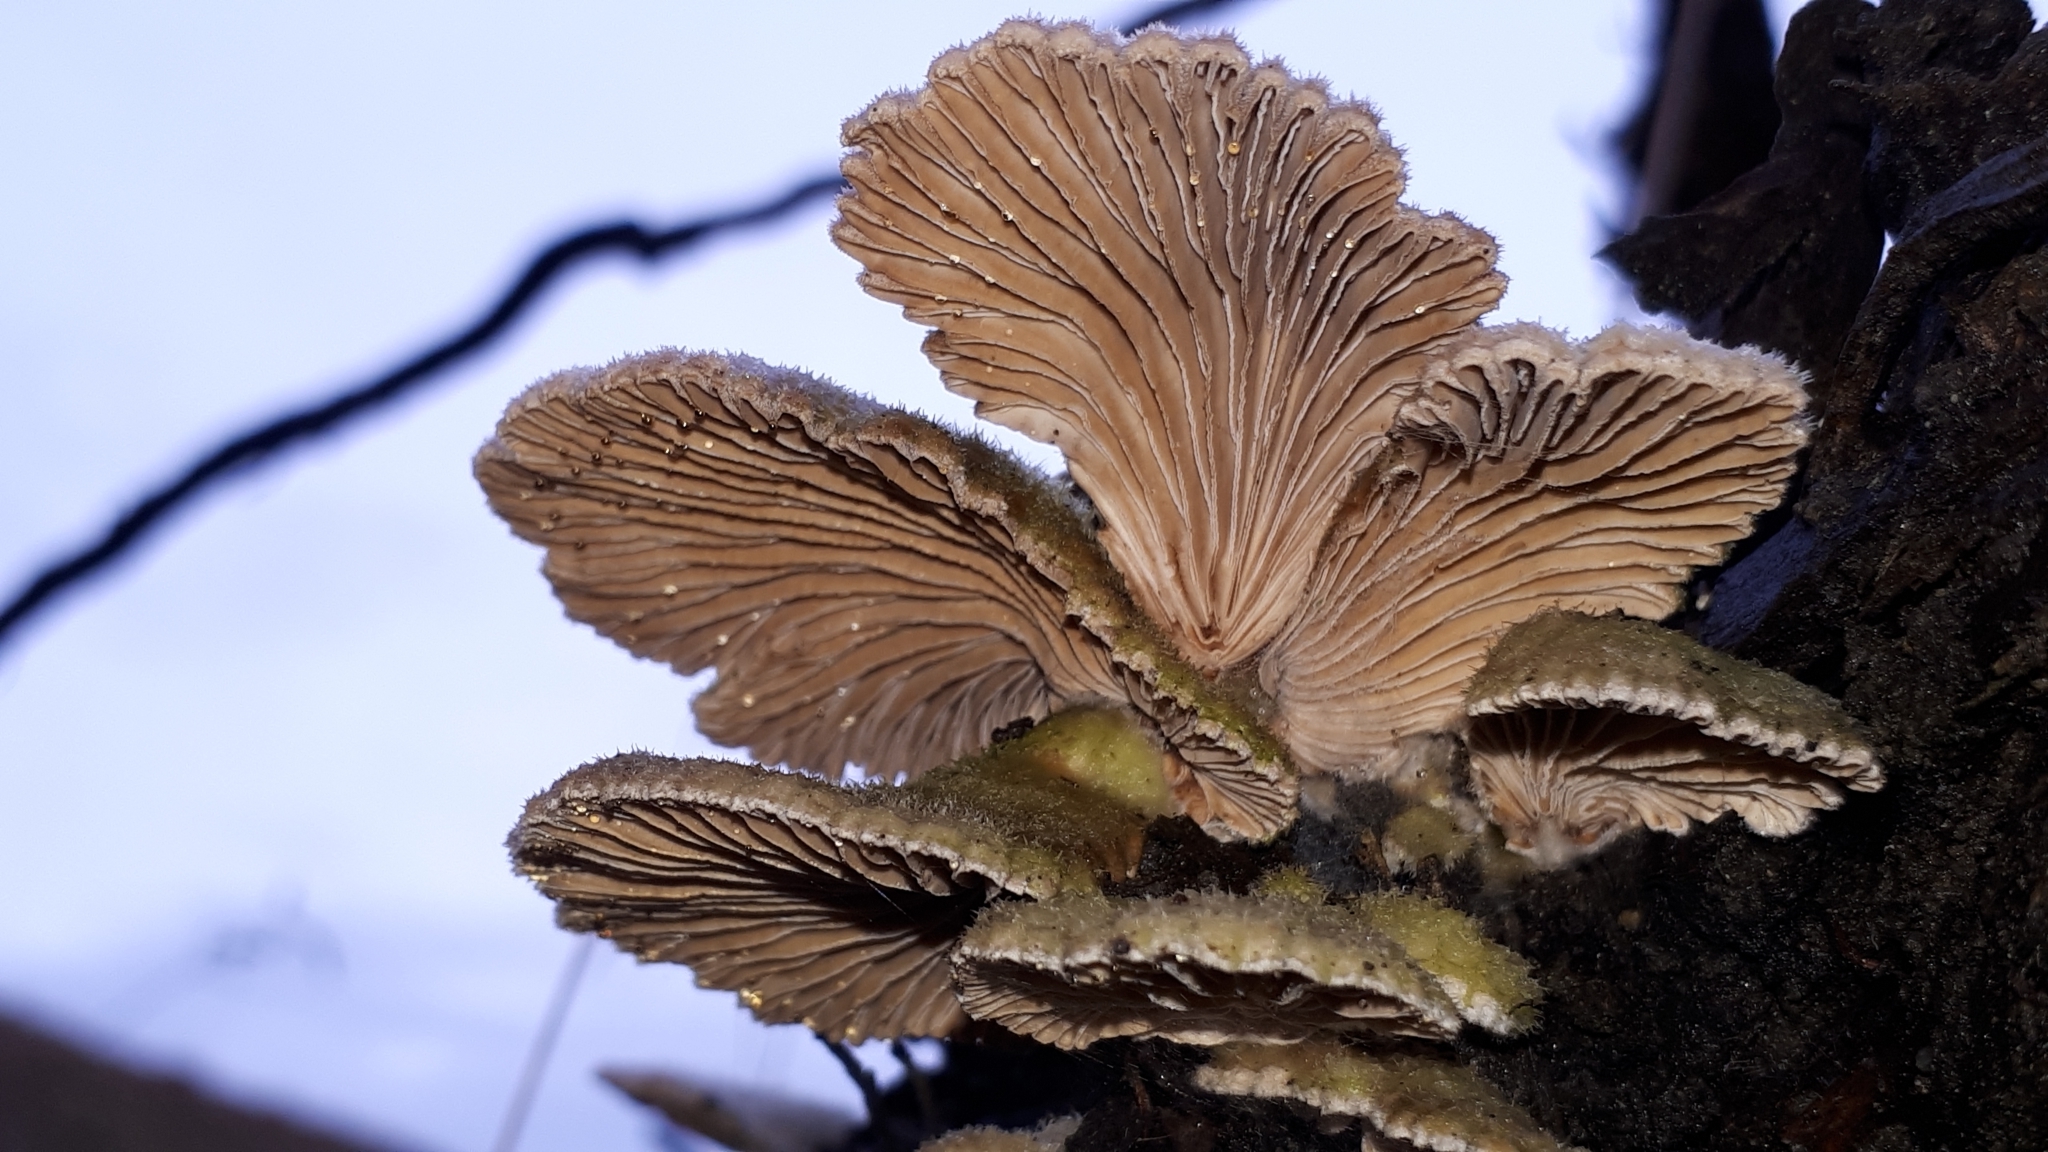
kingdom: Fungi
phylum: Basidiomycota
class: Agaricomycetes
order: Agaricales
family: Schizophyllaceae
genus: Schizophyllum
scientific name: Schizophyllum commune
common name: Common porecrust
